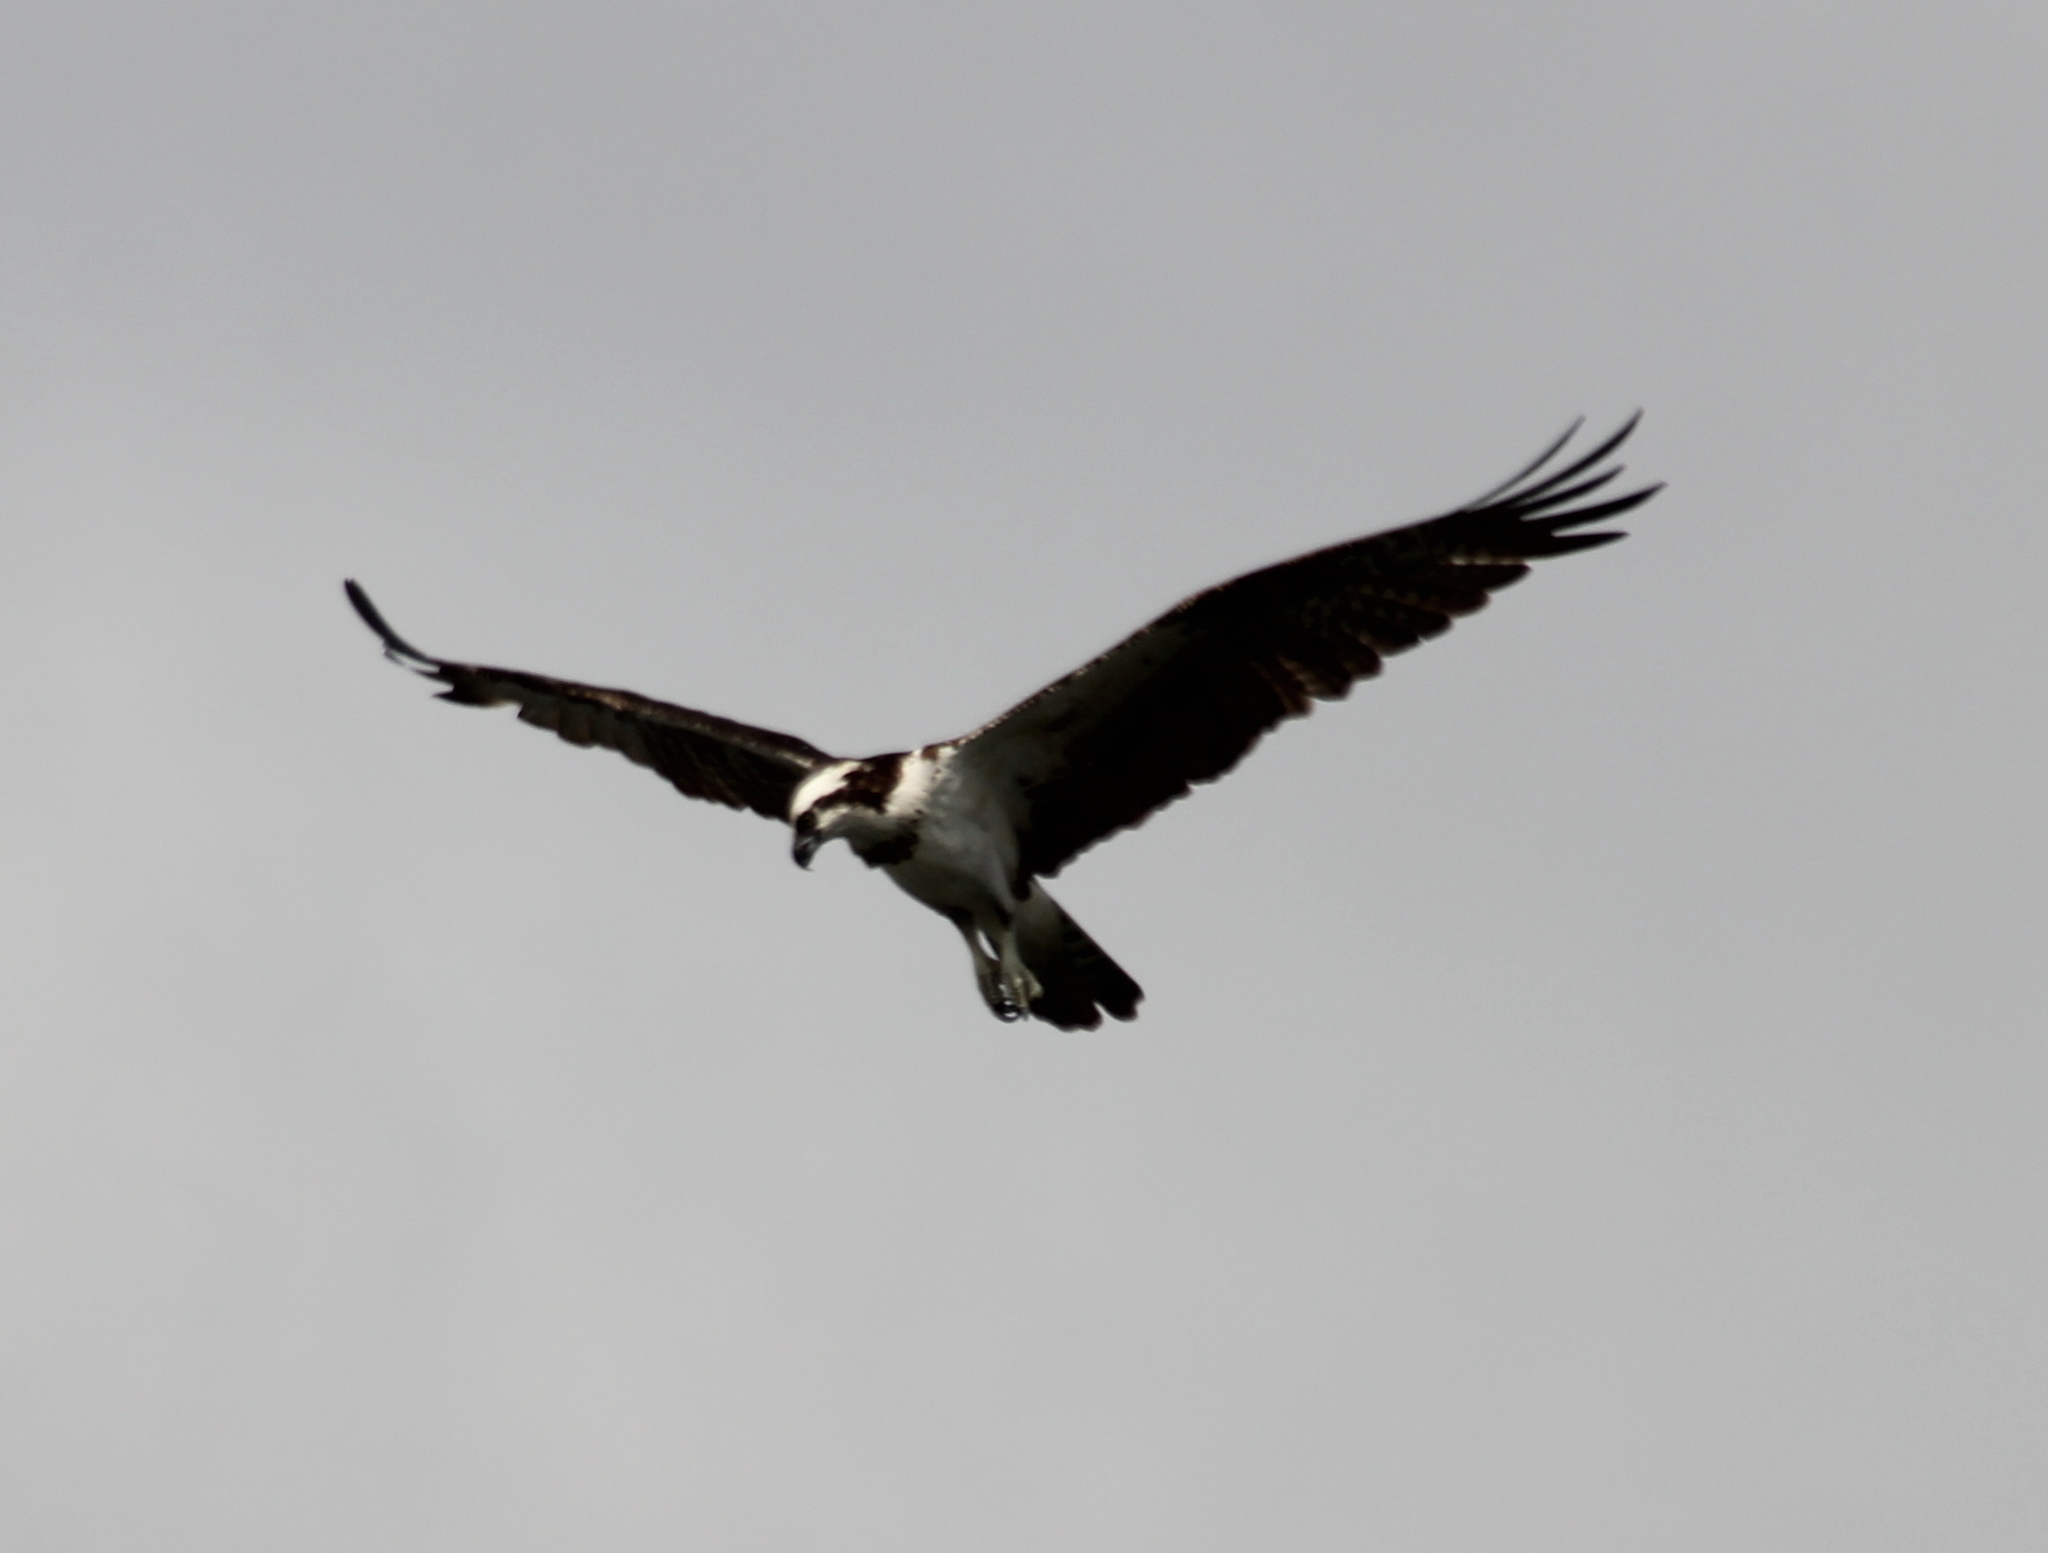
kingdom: Animalia
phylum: Chordata
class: Aves
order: Accipitriformes
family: Pandionidae
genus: Pandion
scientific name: Pandion haliaetus
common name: Osprey
